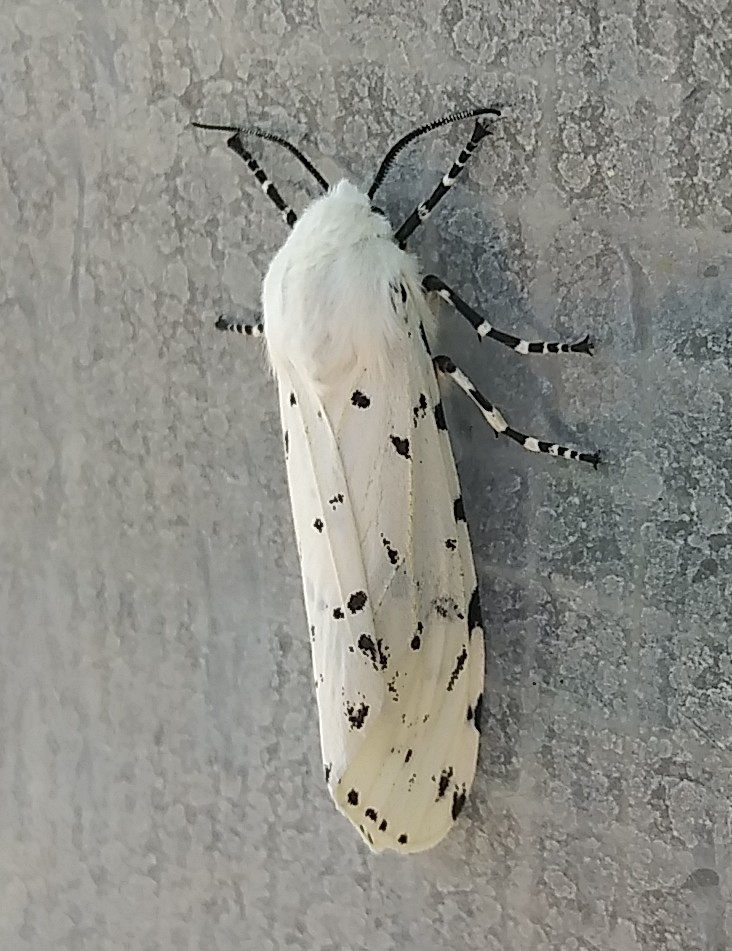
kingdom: Animalia
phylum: Arthropoda
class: Insecta
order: Lepidoptera
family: Erebidae
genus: Estigmene
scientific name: Estigmene acrea
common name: Salt marsh moth
